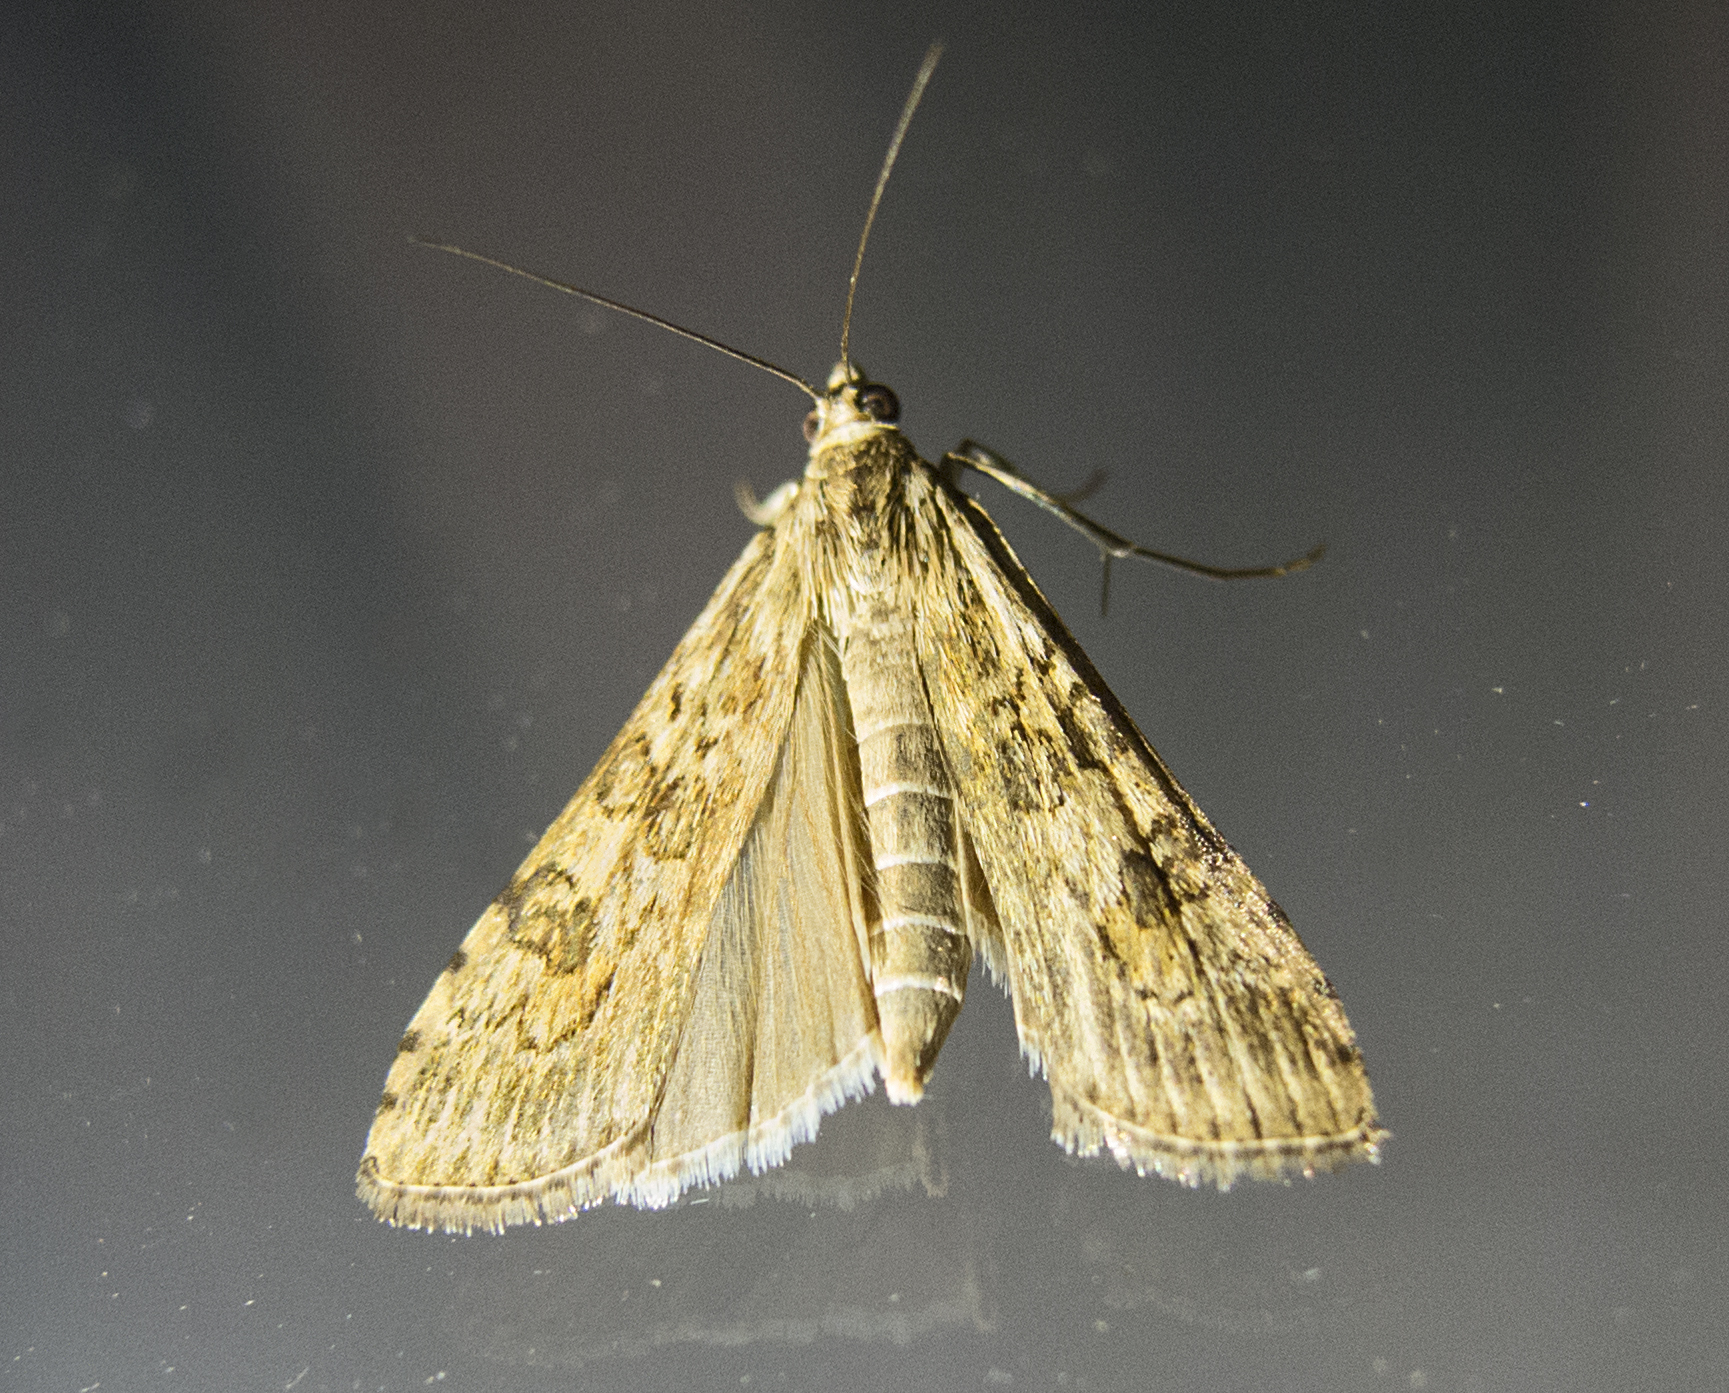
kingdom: Animalia
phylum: Arthropoda
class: Insecta
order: Lepidoptera
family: Crambidae
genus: Nomophila
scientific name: Nomophila noctuella
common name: Rush veneer
